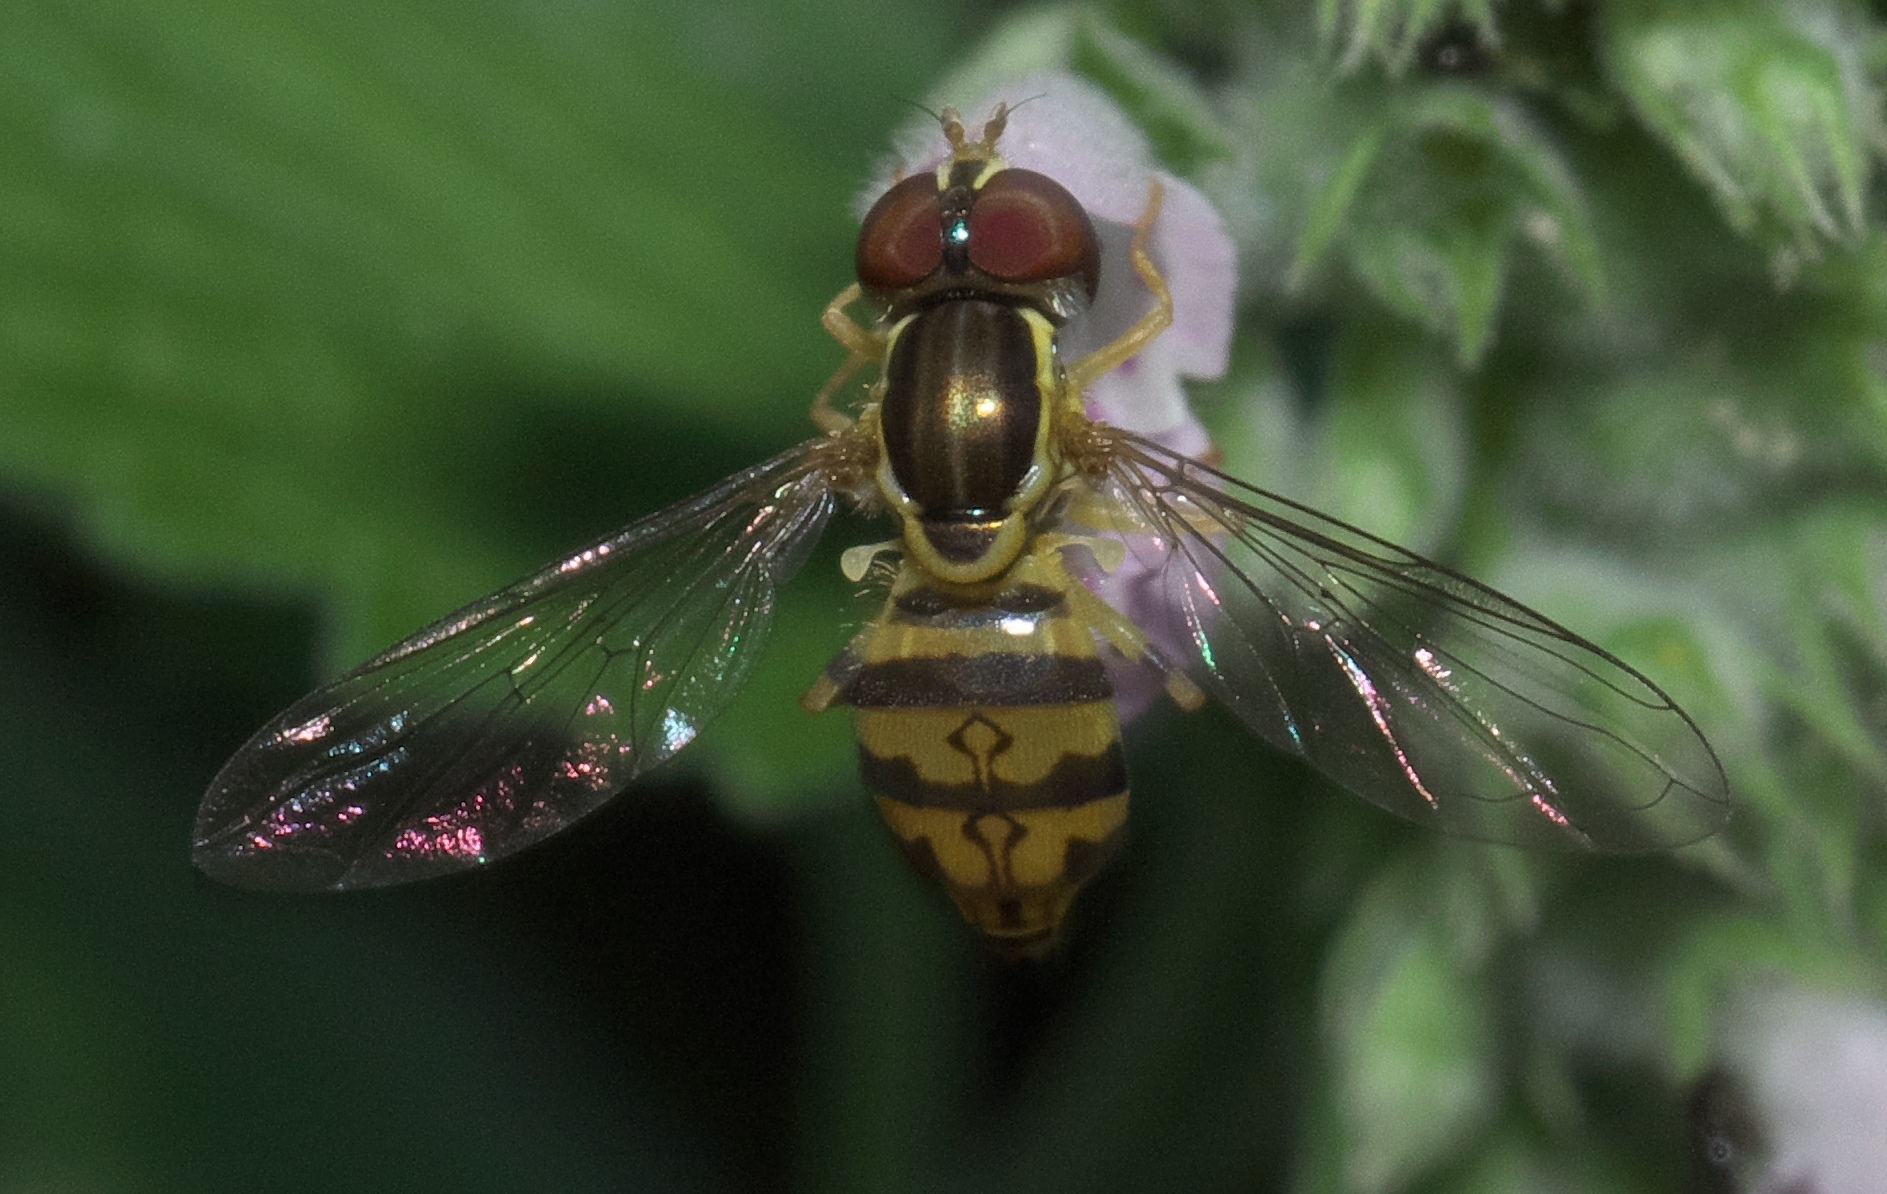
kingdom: Animalia
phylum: Arthropoda
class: Insecta
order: Diptera
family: Syrphidae
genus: Toxomerus
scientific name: Toxomerus geminatus
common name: Eastern calligrapher
